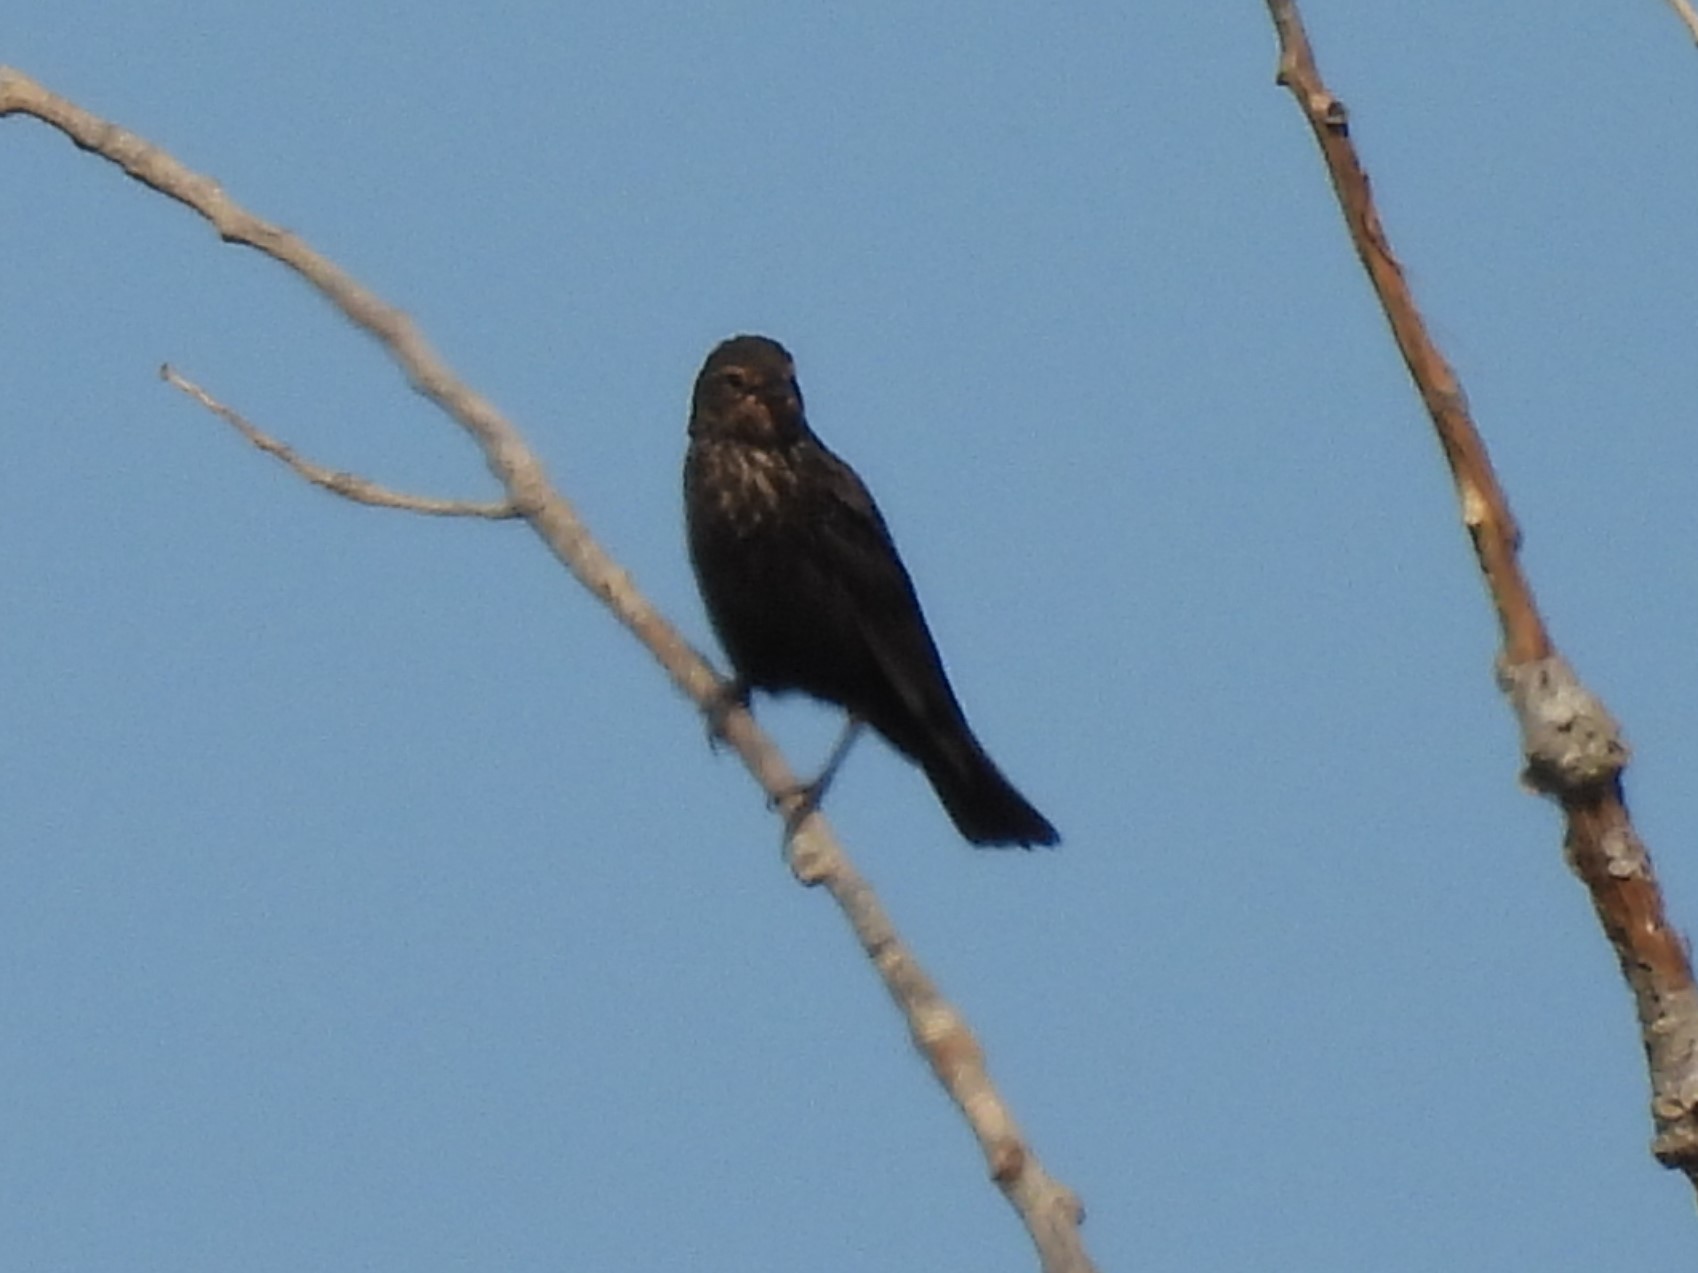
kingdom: Animalia
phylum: Chordata
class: Aves
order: Passeriformes
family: Icteridae
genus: Agelaius
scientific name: Agelaius phoeniceus
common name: Red-winged blackbird
